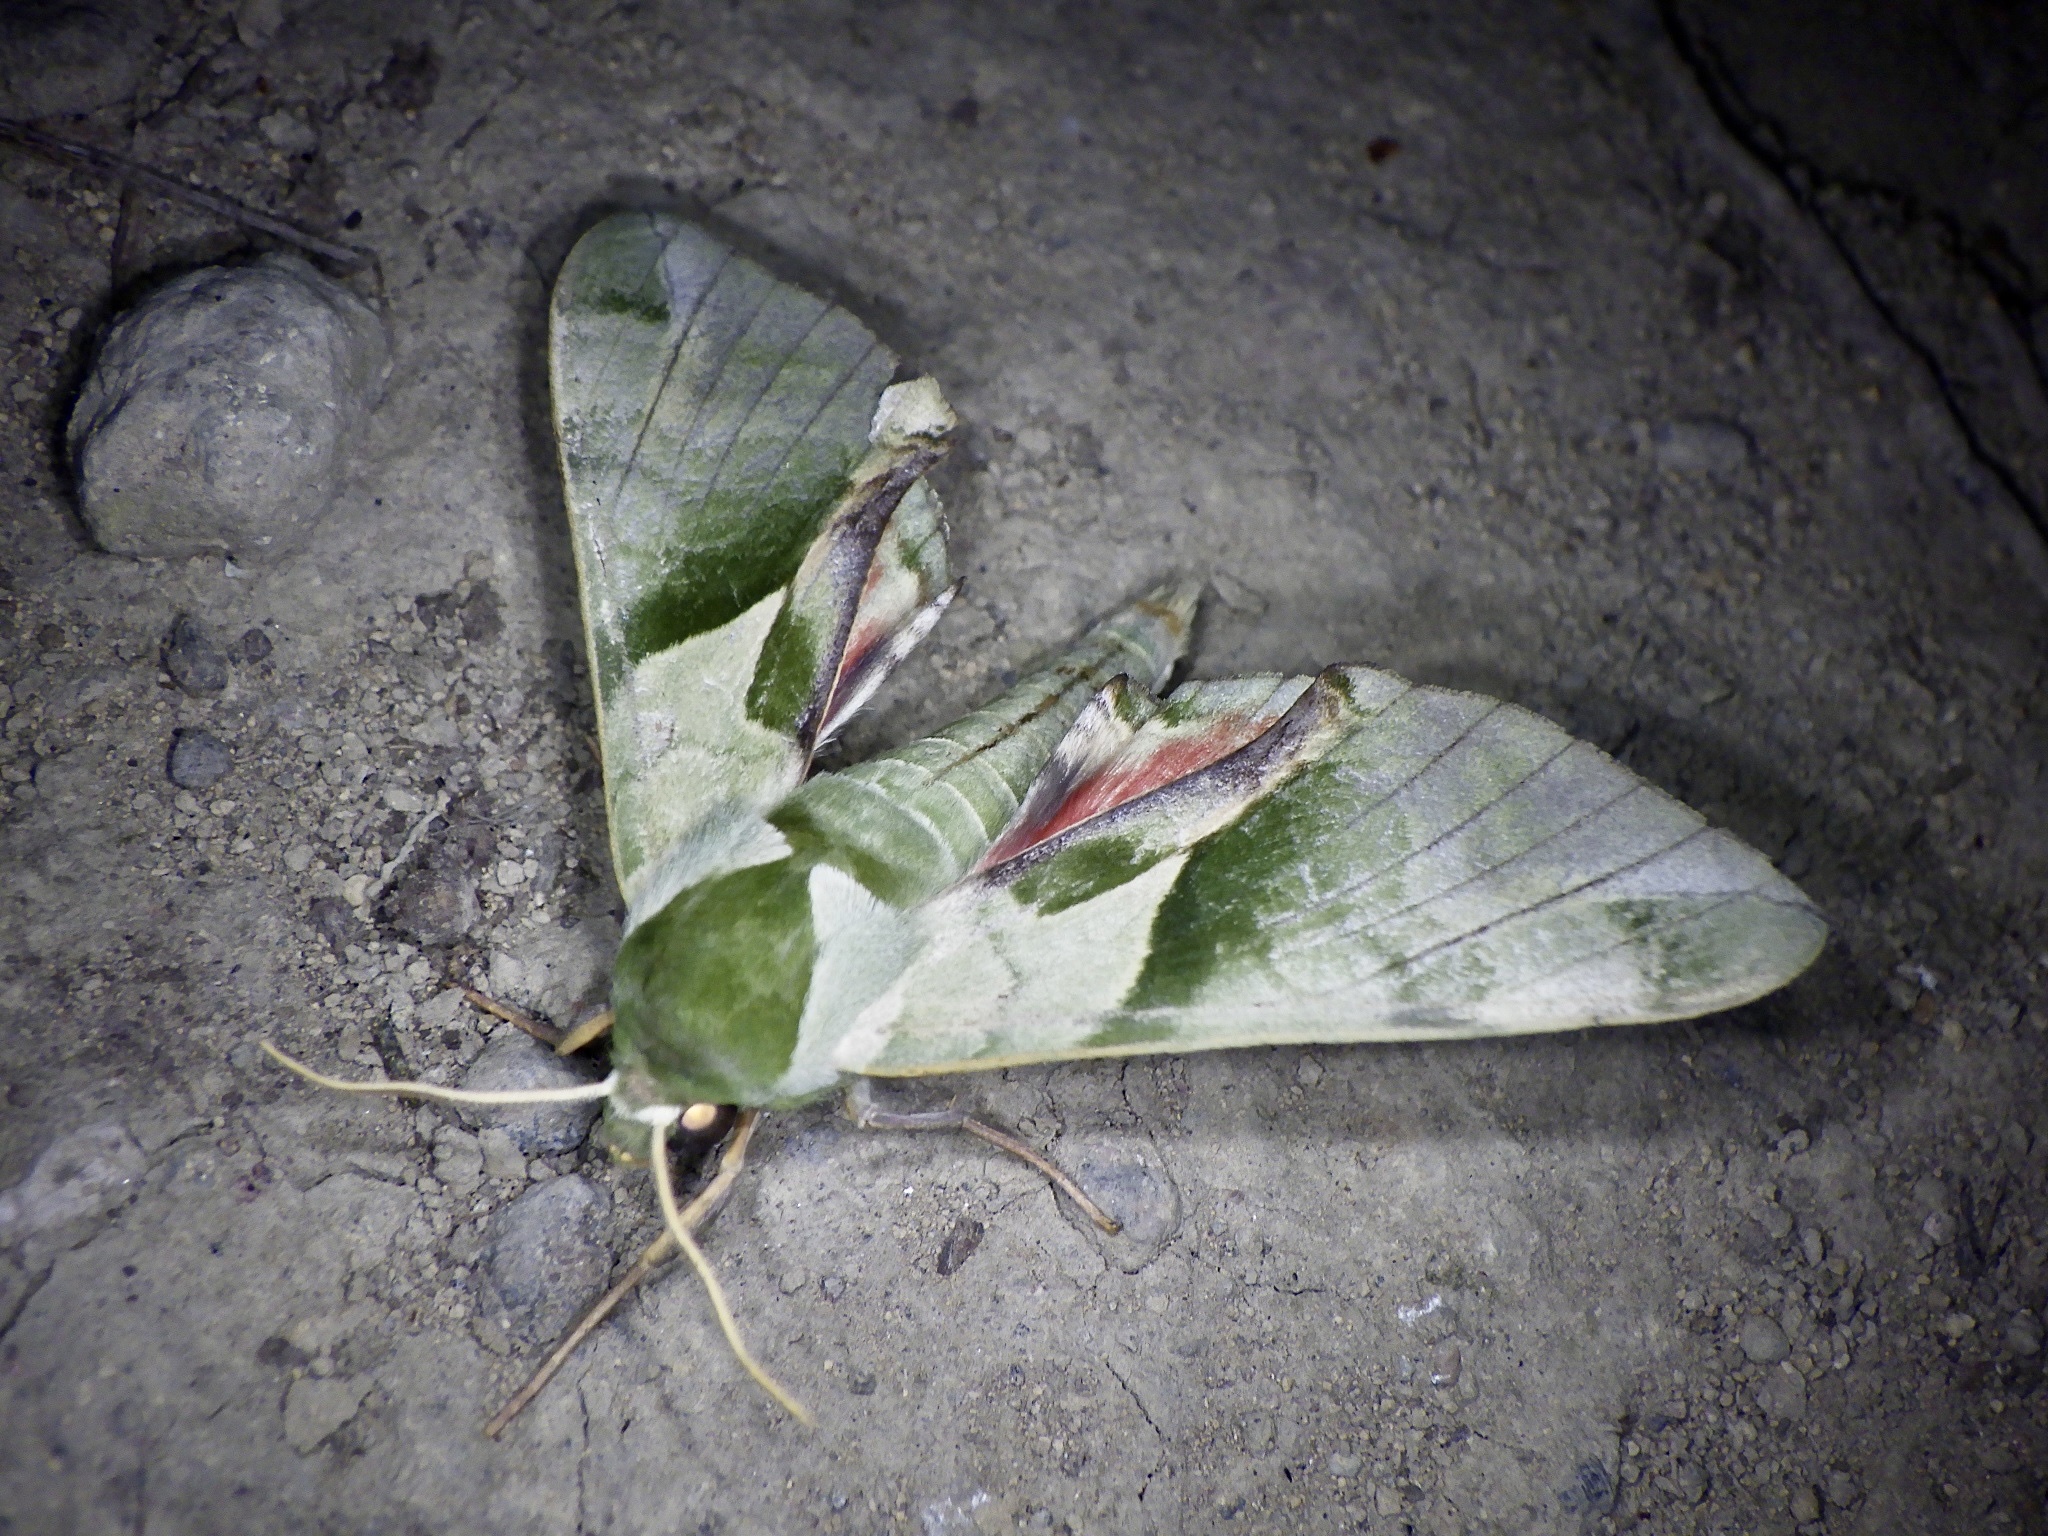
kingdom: Animalia
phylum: Arthropoda
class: Insecta
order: Lepidoptera
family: Sphingidae
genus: Callambulyx
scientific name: Callambulyx tatarinovii
